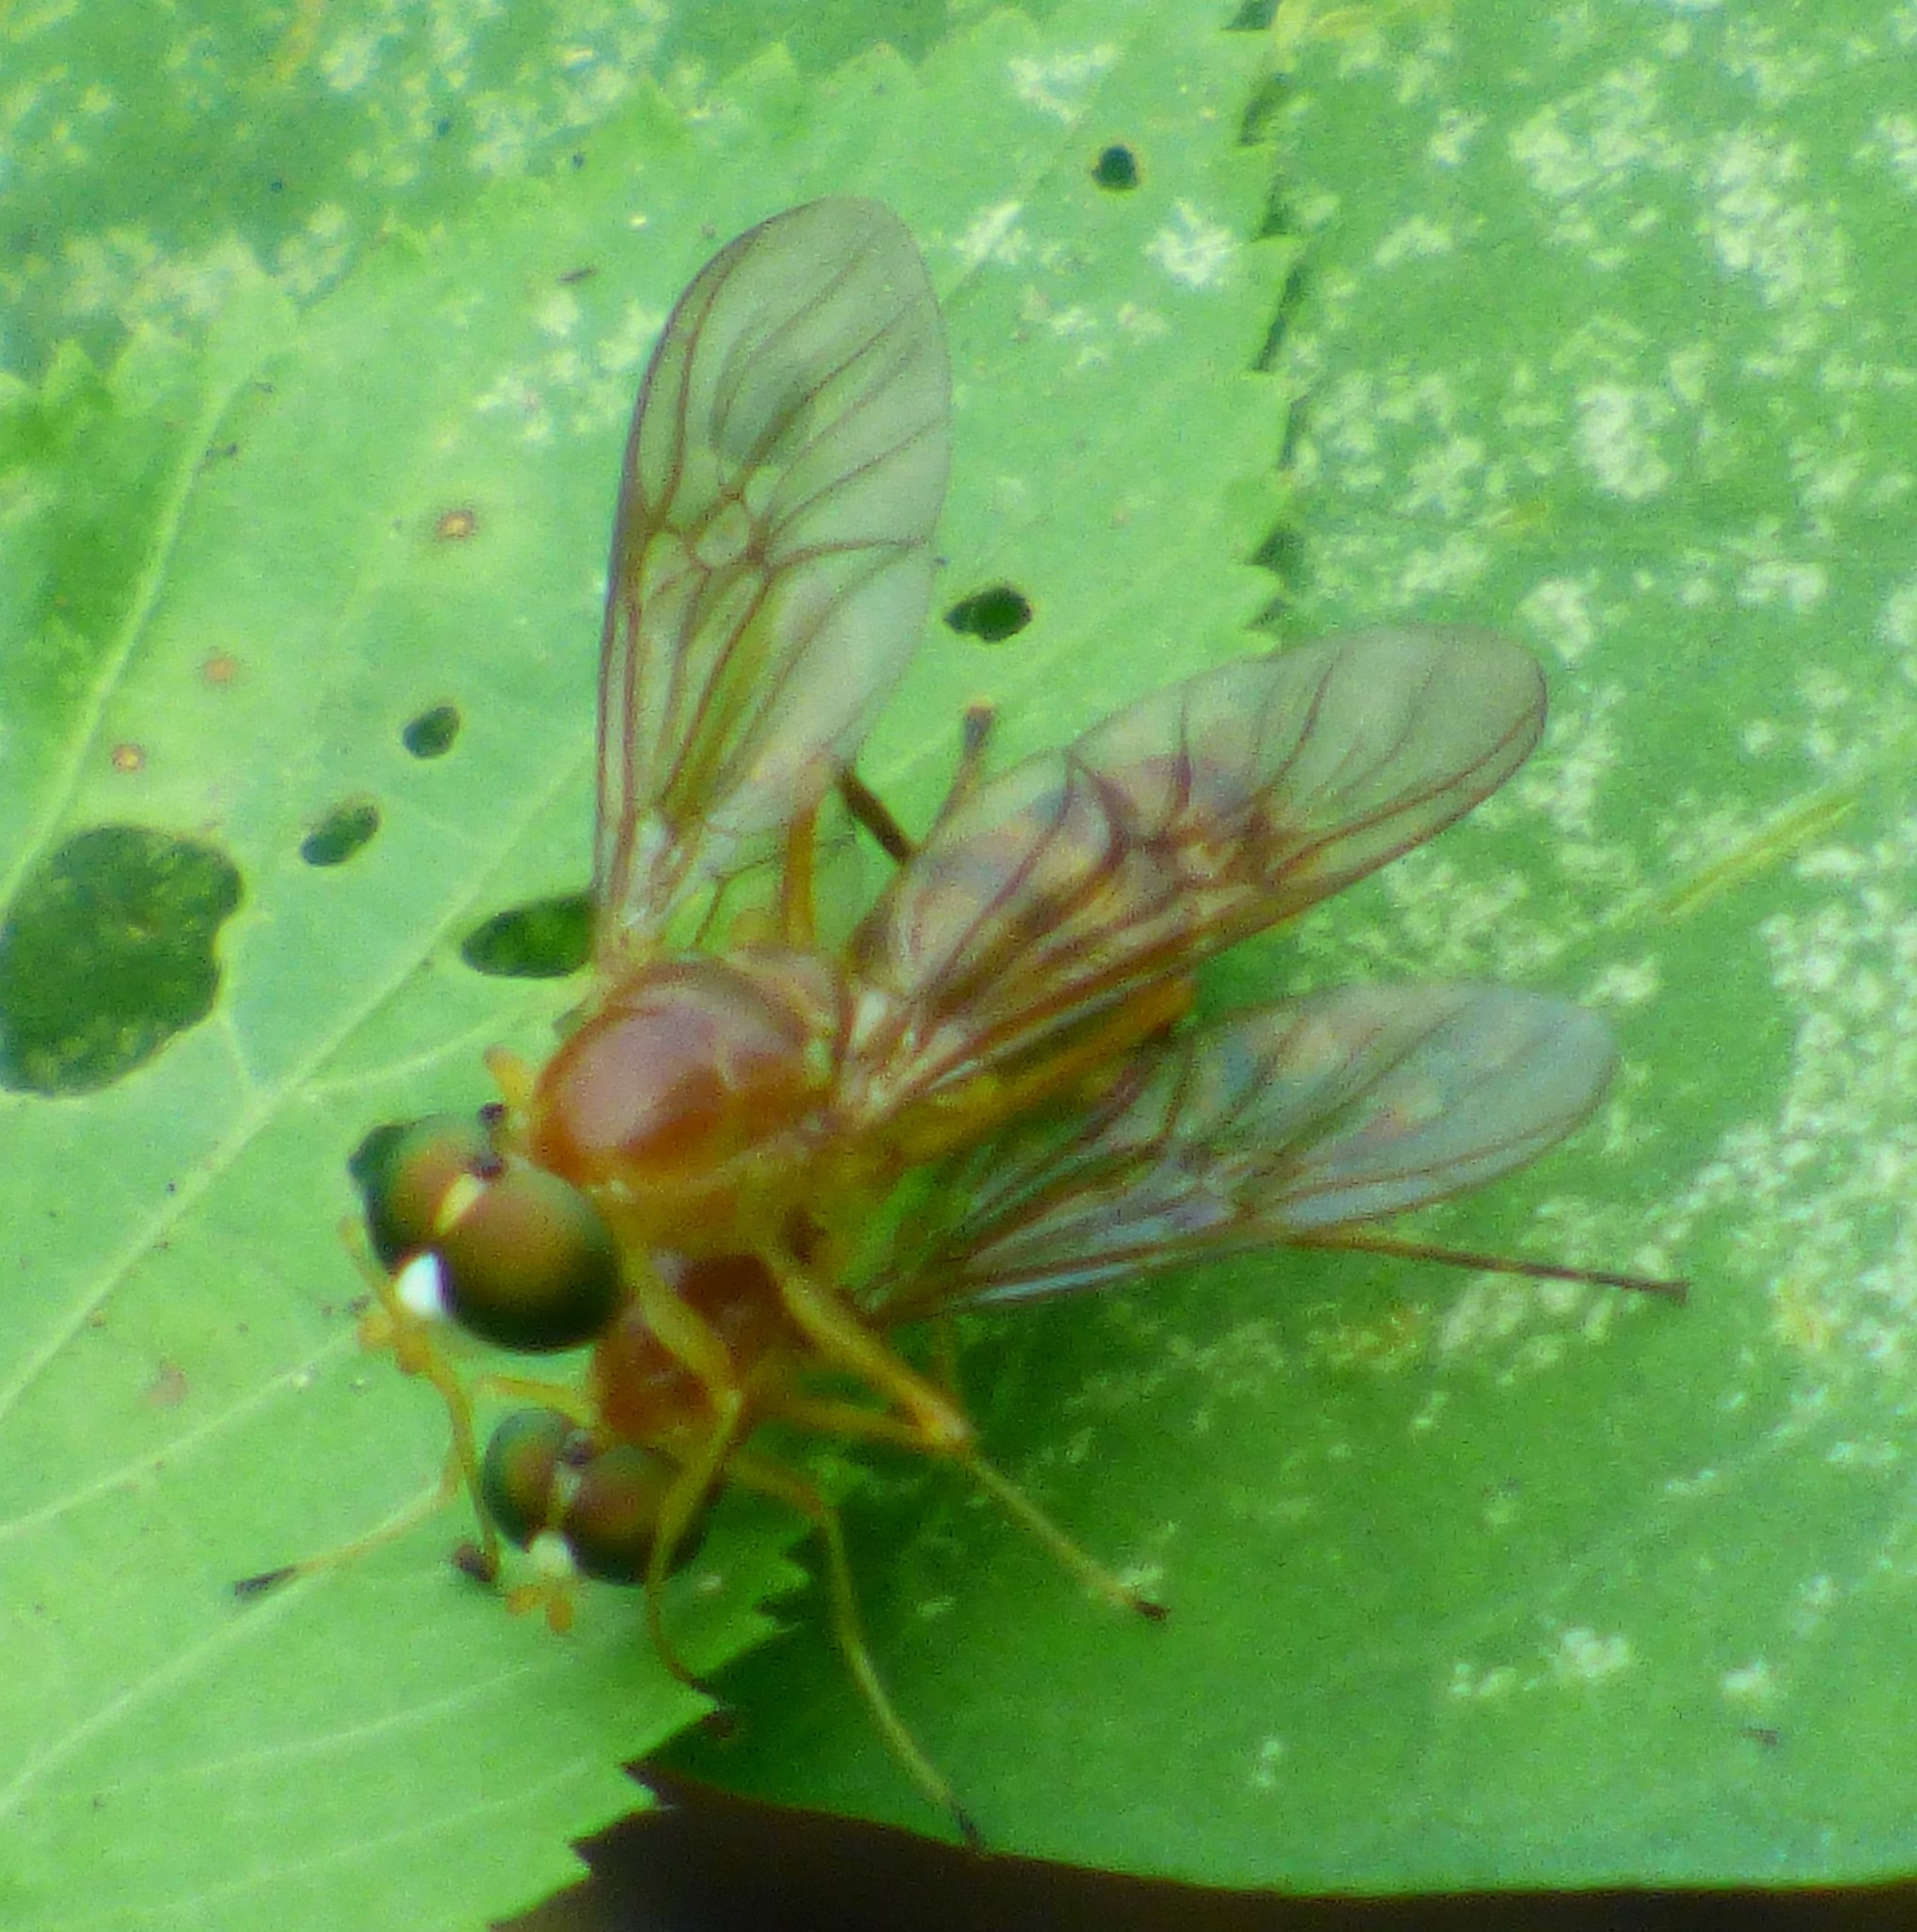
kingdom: Animalia
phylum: Arthropoda
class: Insecta
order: Diptera
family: Stratiomyidae
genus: Ptecticus
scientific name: Ptecticus trivittatus
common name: Compost fly
